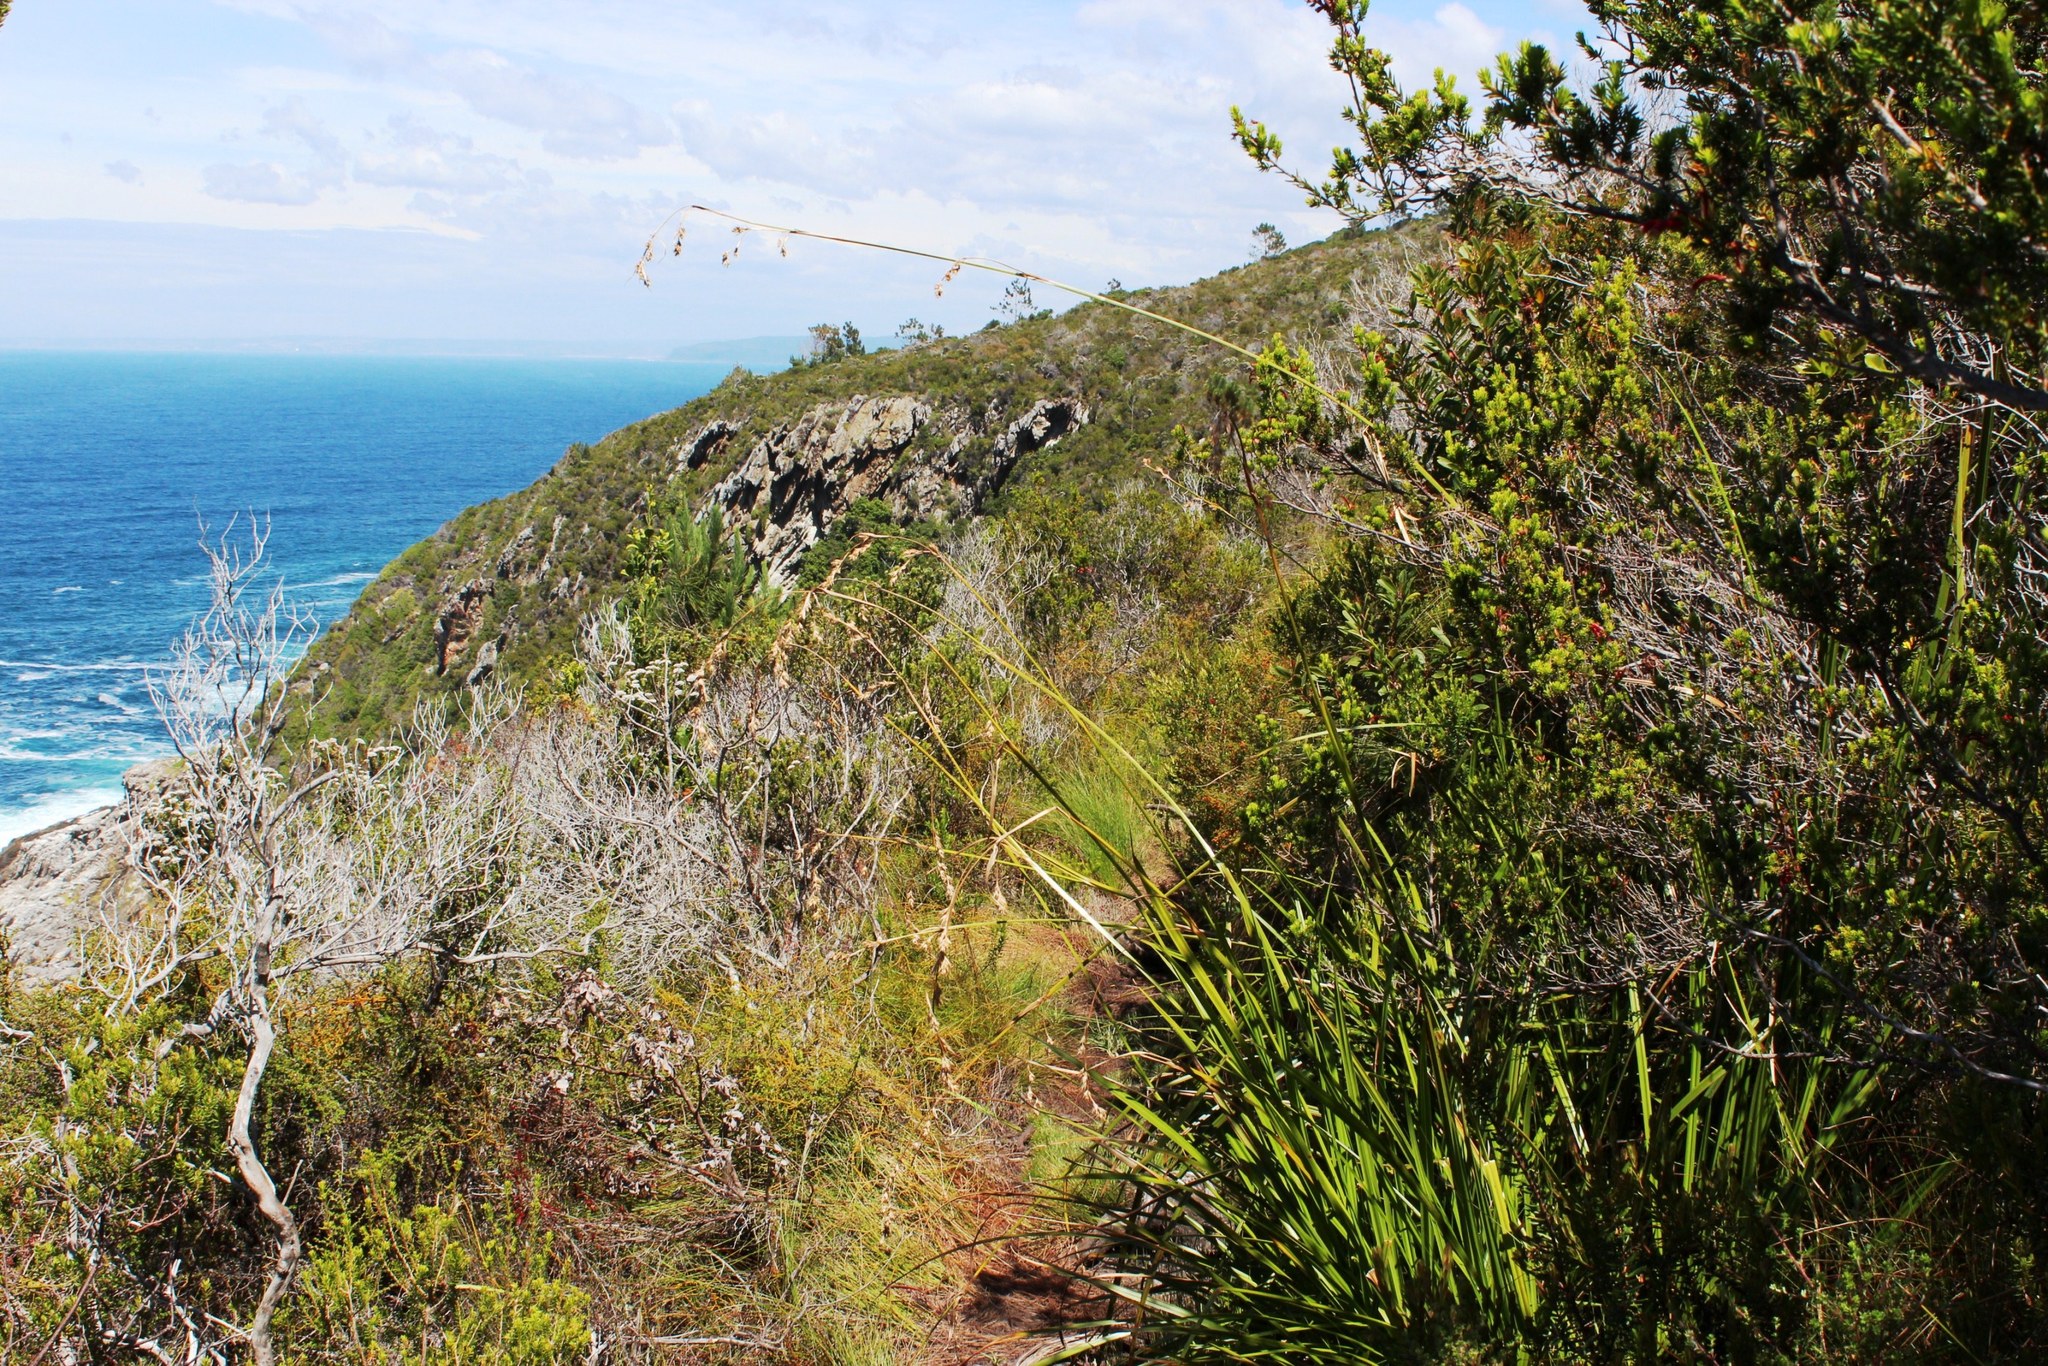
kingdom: Plantae
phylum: Tracheophyta
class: Liliopsida
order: Poales
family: Cyperaceae
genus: Carpha
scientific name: Carpha glomerata
